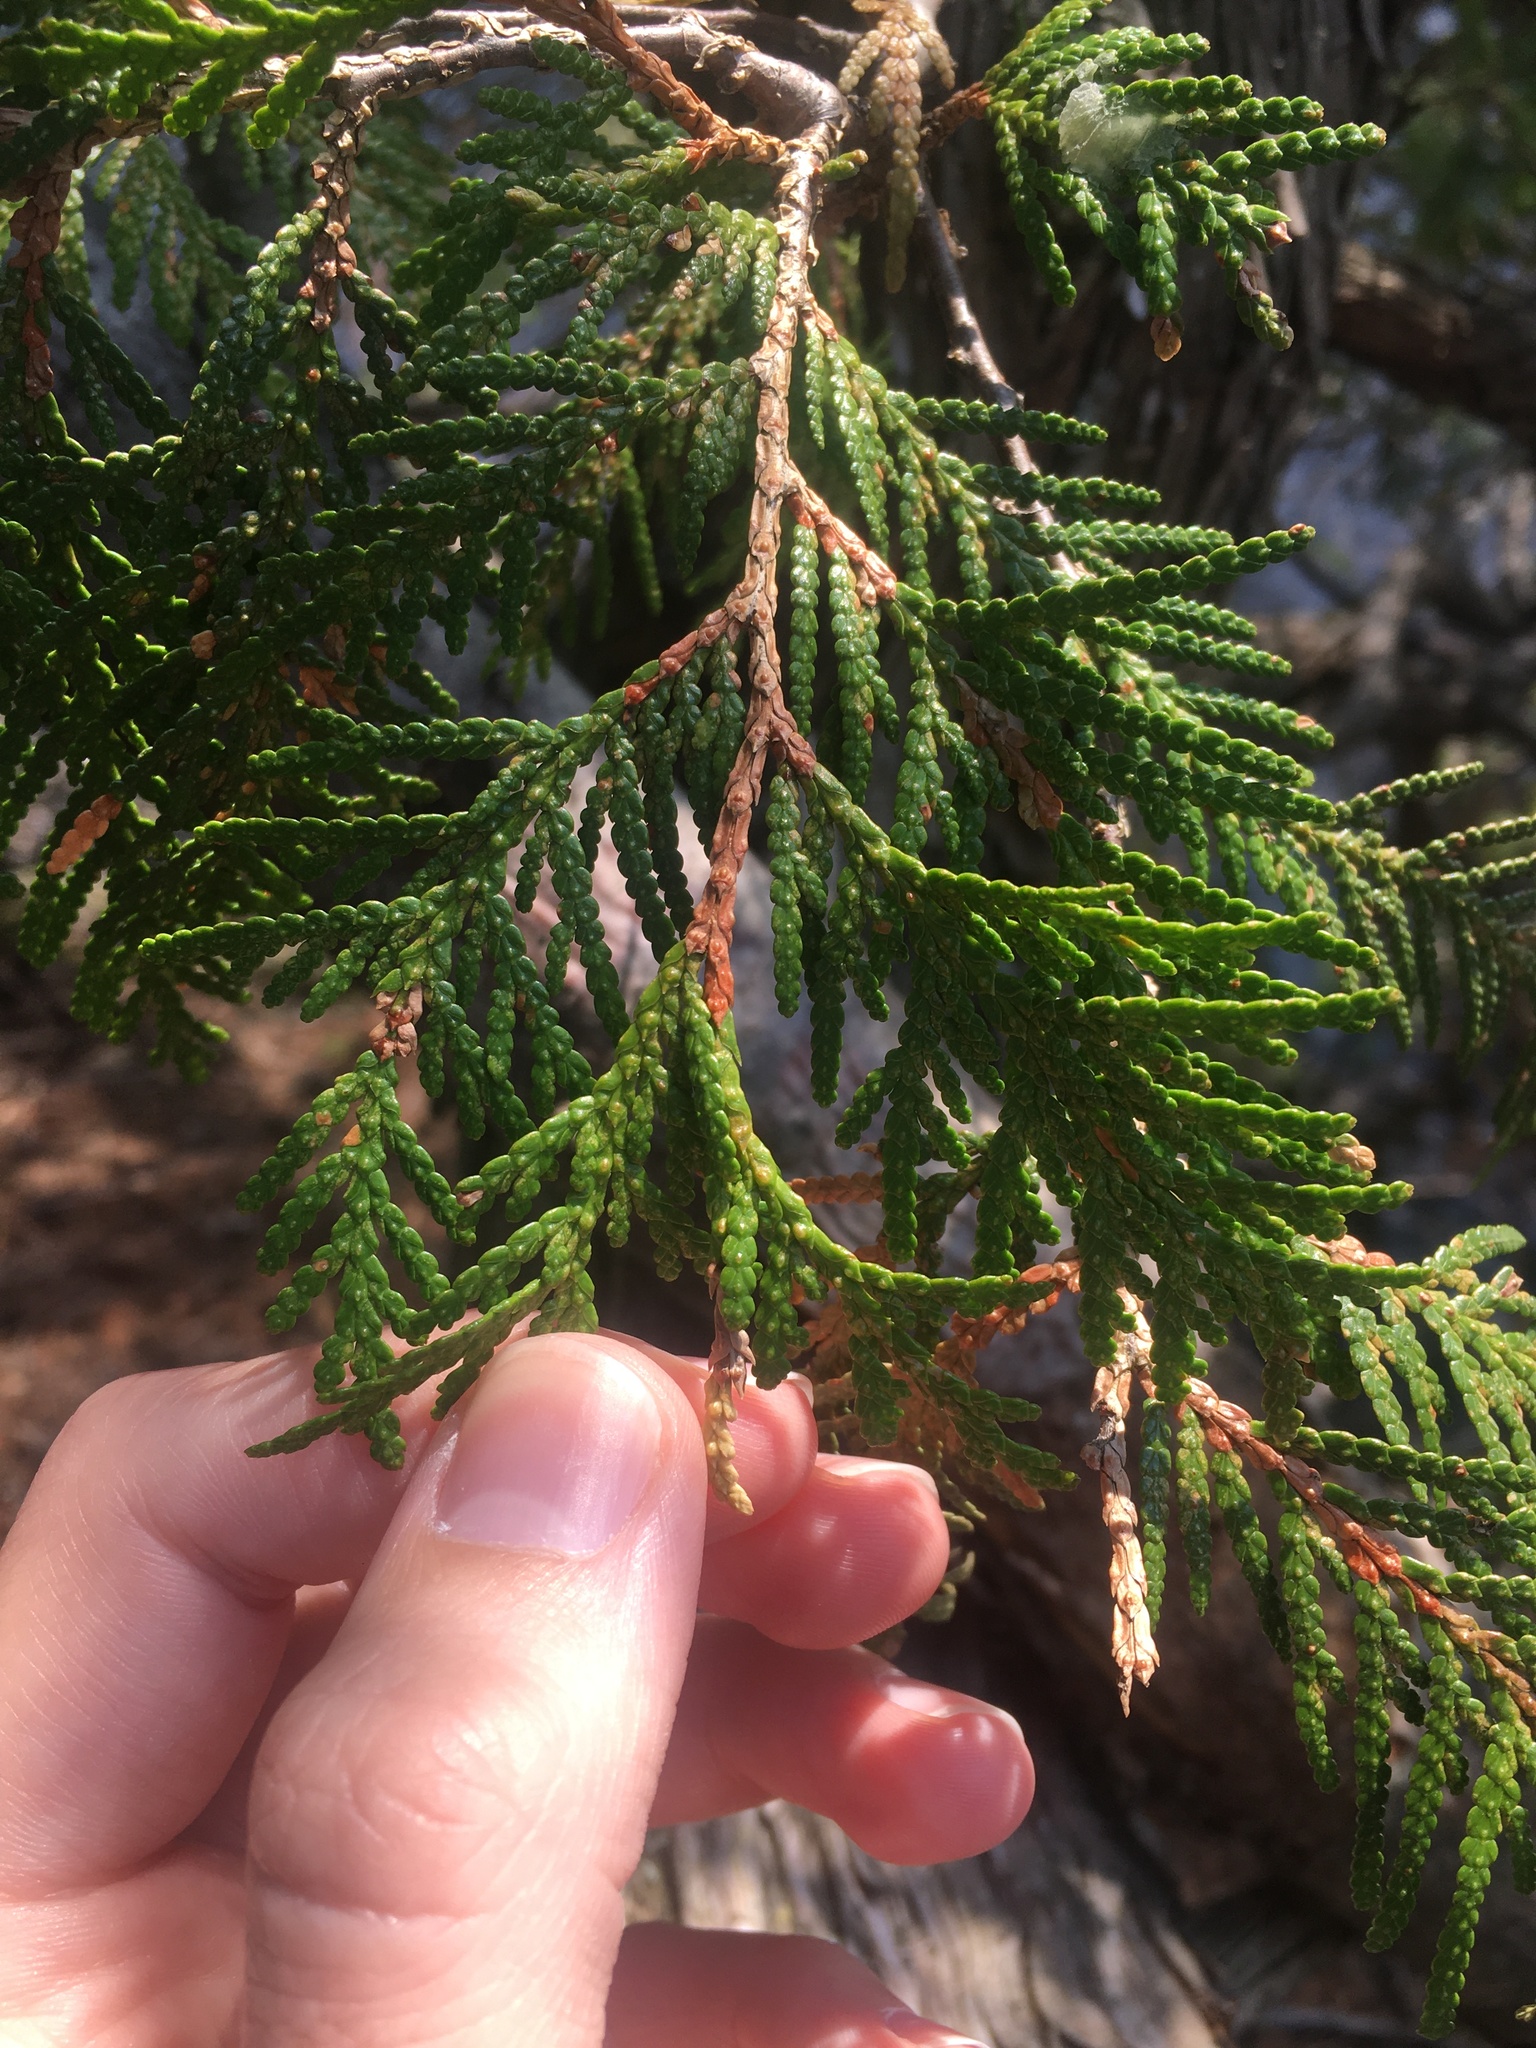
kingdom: Plantae
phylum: Tracheophyta
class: Pinopsida
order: Pinales
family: Cupressaceae
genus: Thuja
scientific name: Thuja occidentalis
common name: Northern white-cedar
